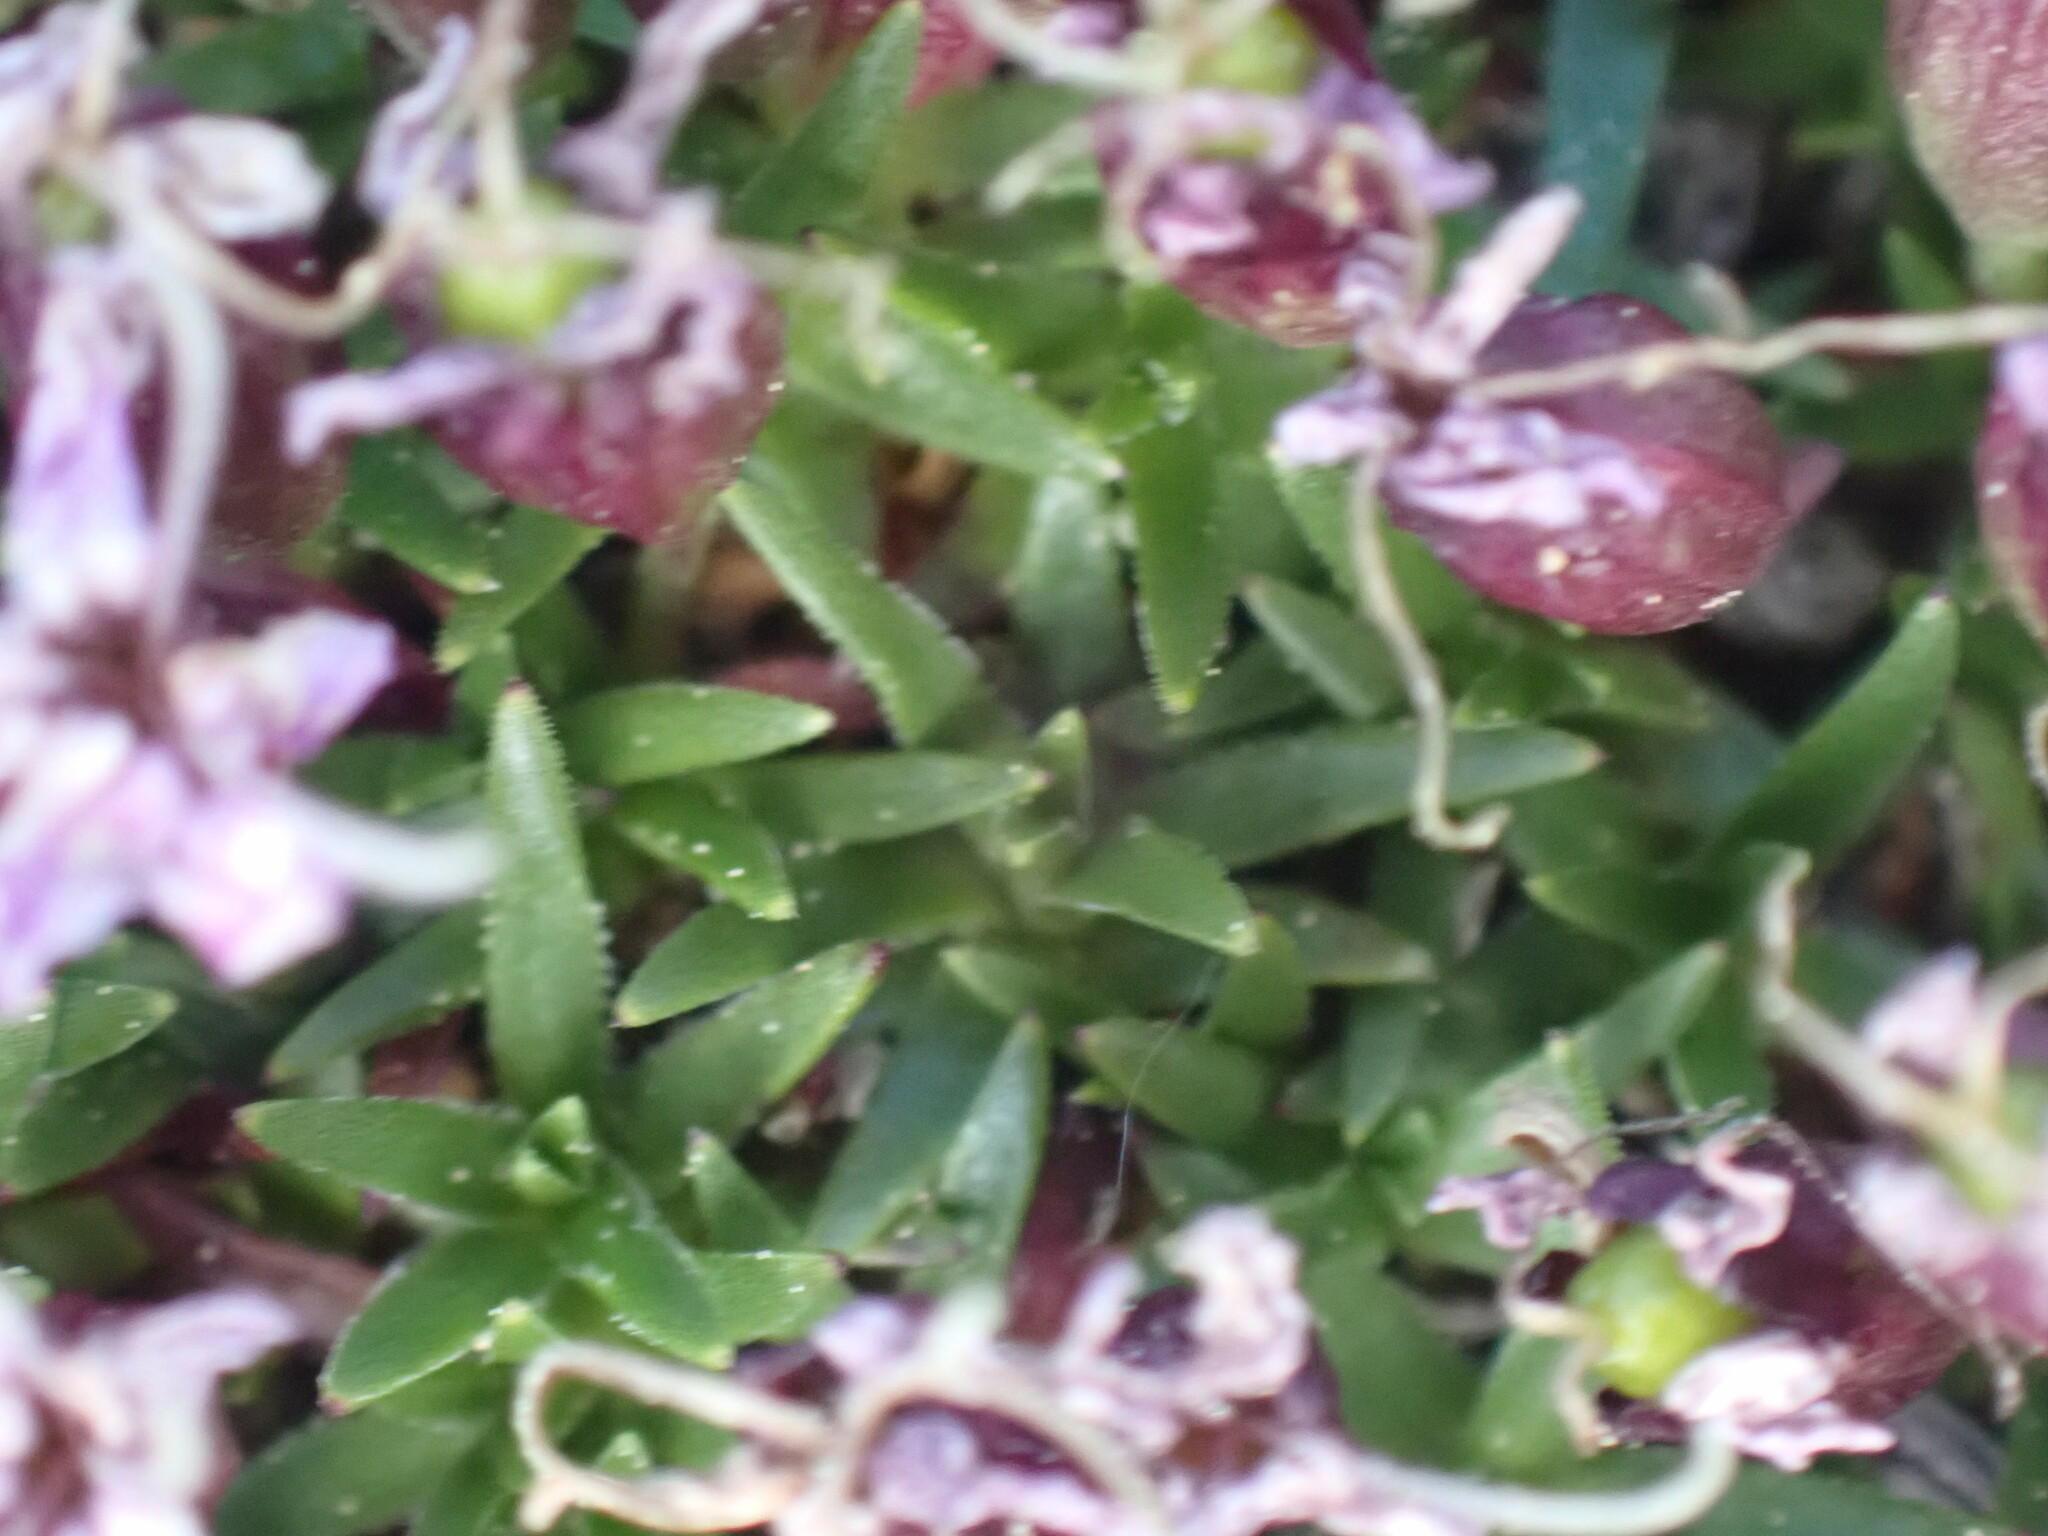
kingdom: Plantae
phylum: Tracheophyta
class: Magnoliopsida
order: Caryophyllales
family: Caryophyllaceae
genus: Silene
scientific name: Silene acaulis
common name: Moss campion
